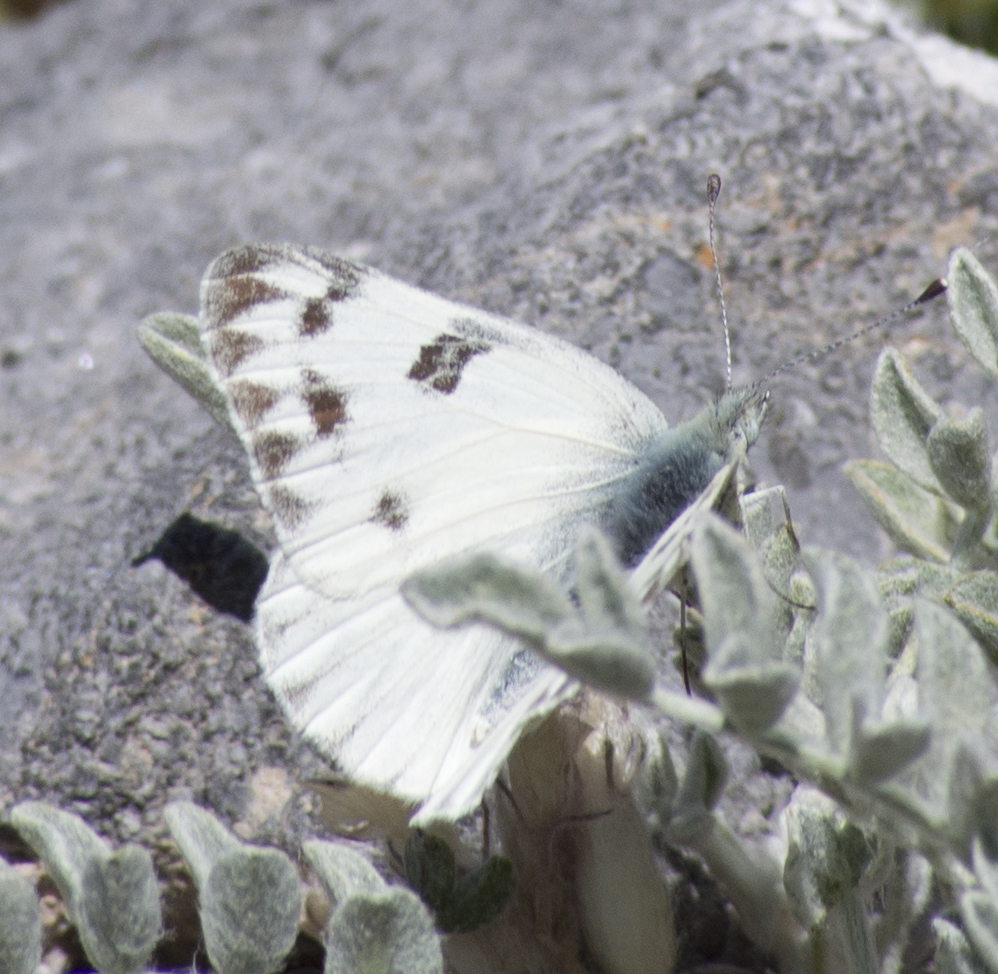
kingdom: Animalia
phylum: Arthropoda
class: Insecta
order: Lepidoptera
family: Pieridae
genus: Pontia
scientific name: Pontia protodice
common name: Checkered white
